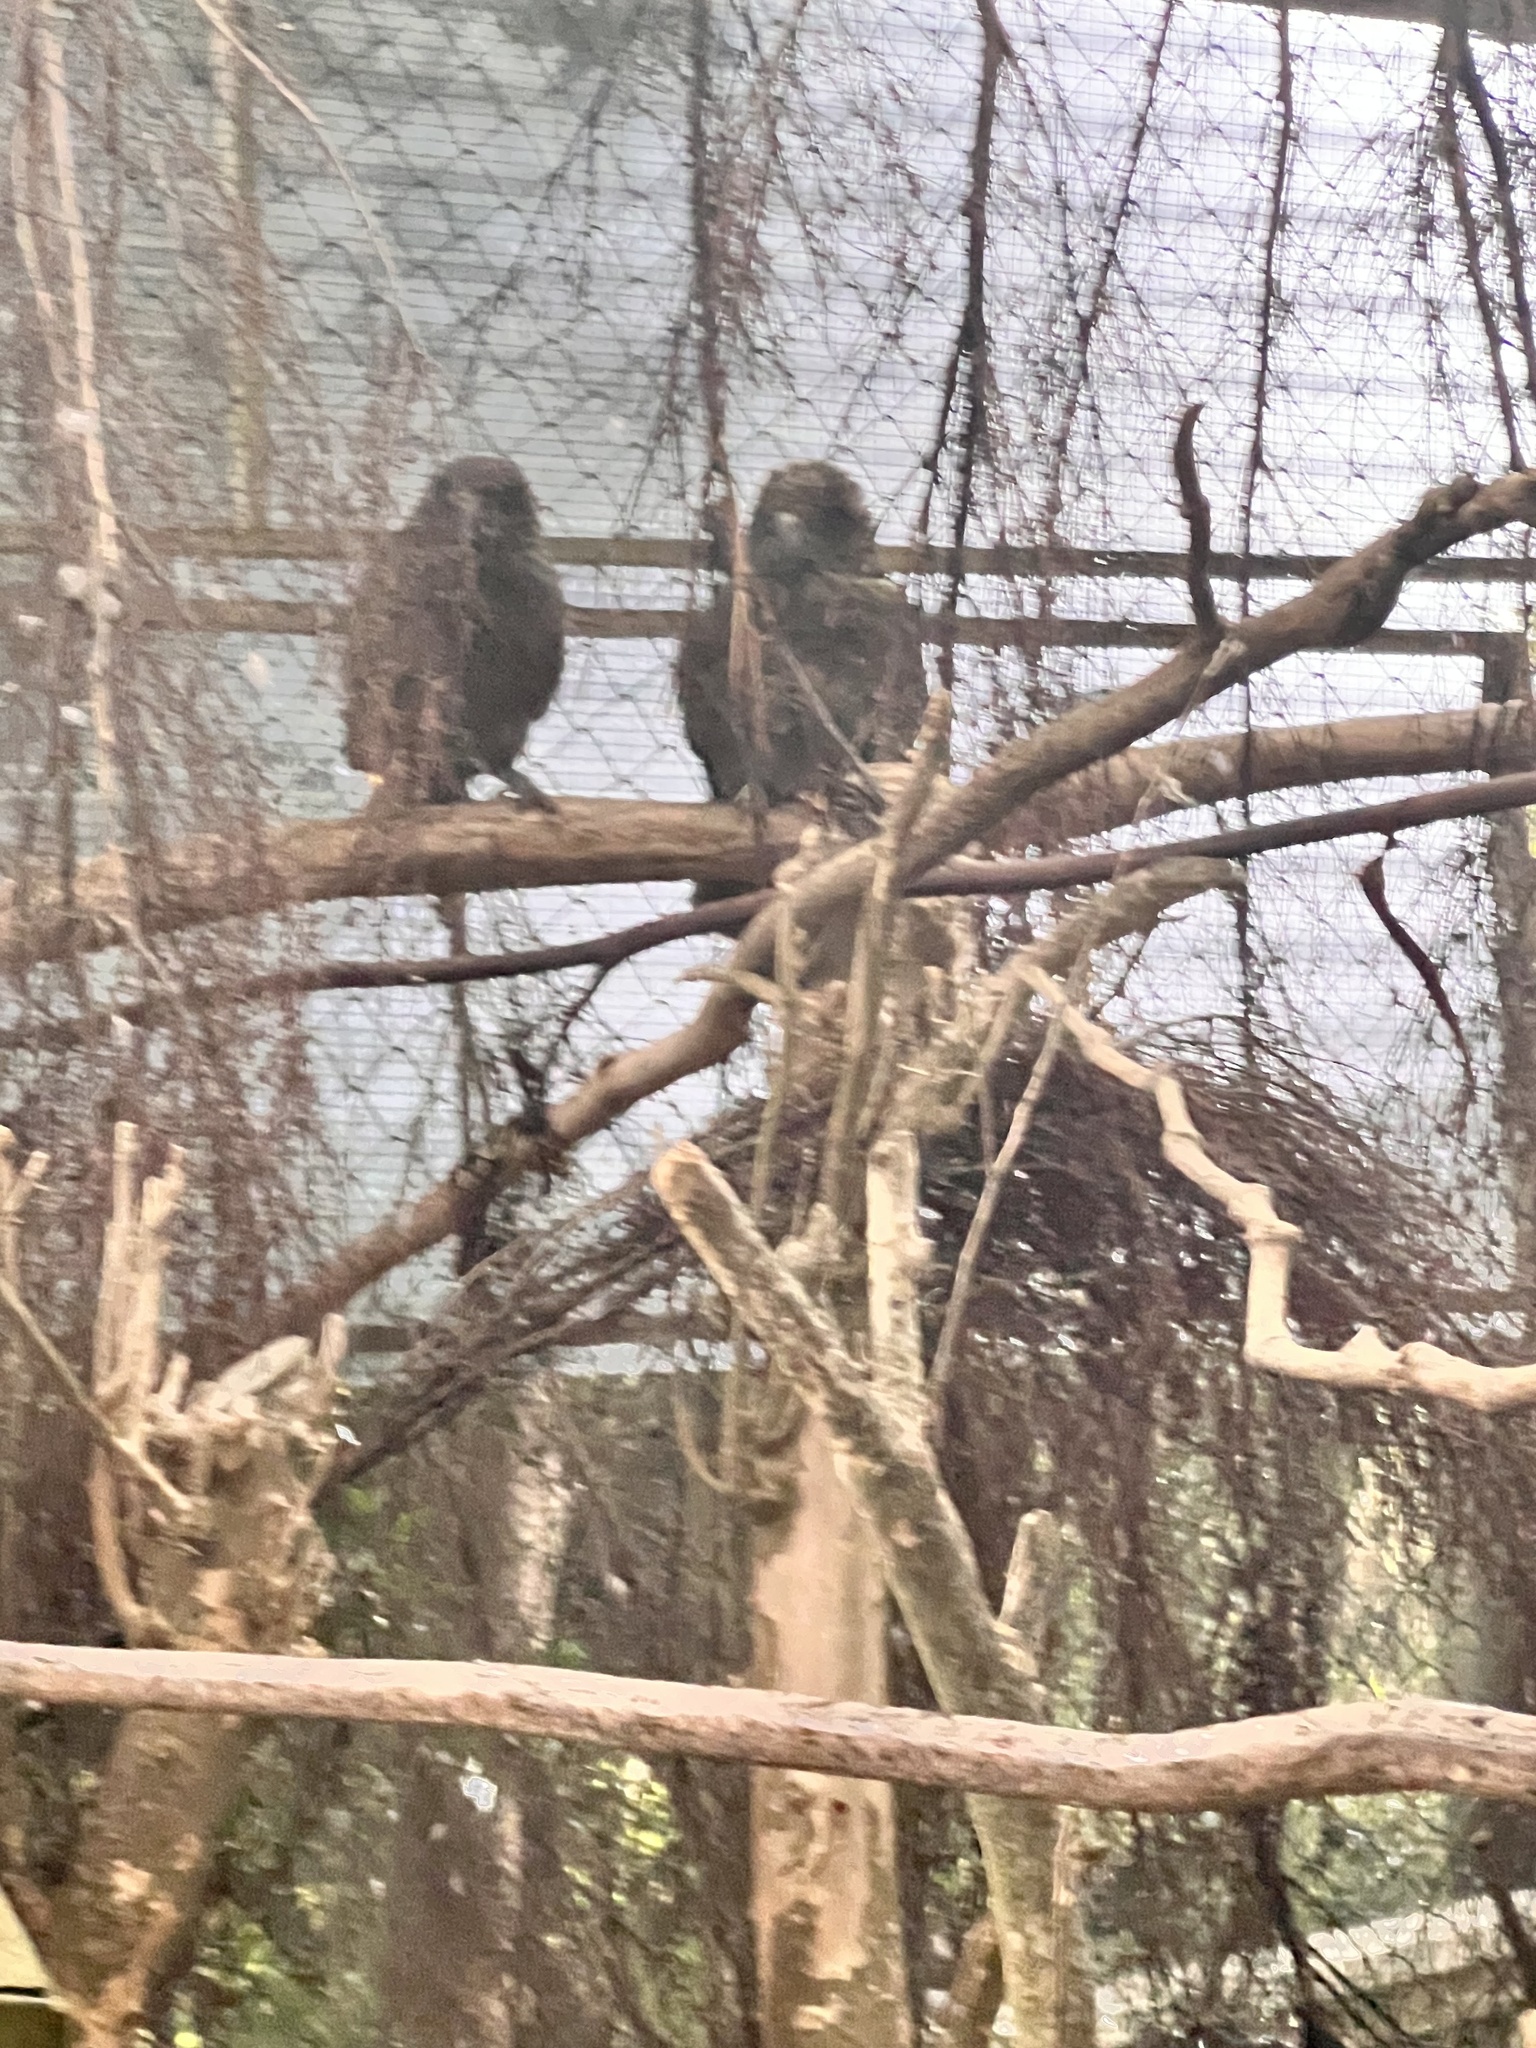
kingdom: Animalia
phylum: Chordata
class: Aves
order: Psittaciformes
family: Psittacidae
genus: Nestor
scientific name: Nestor notabilis
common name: Kea
